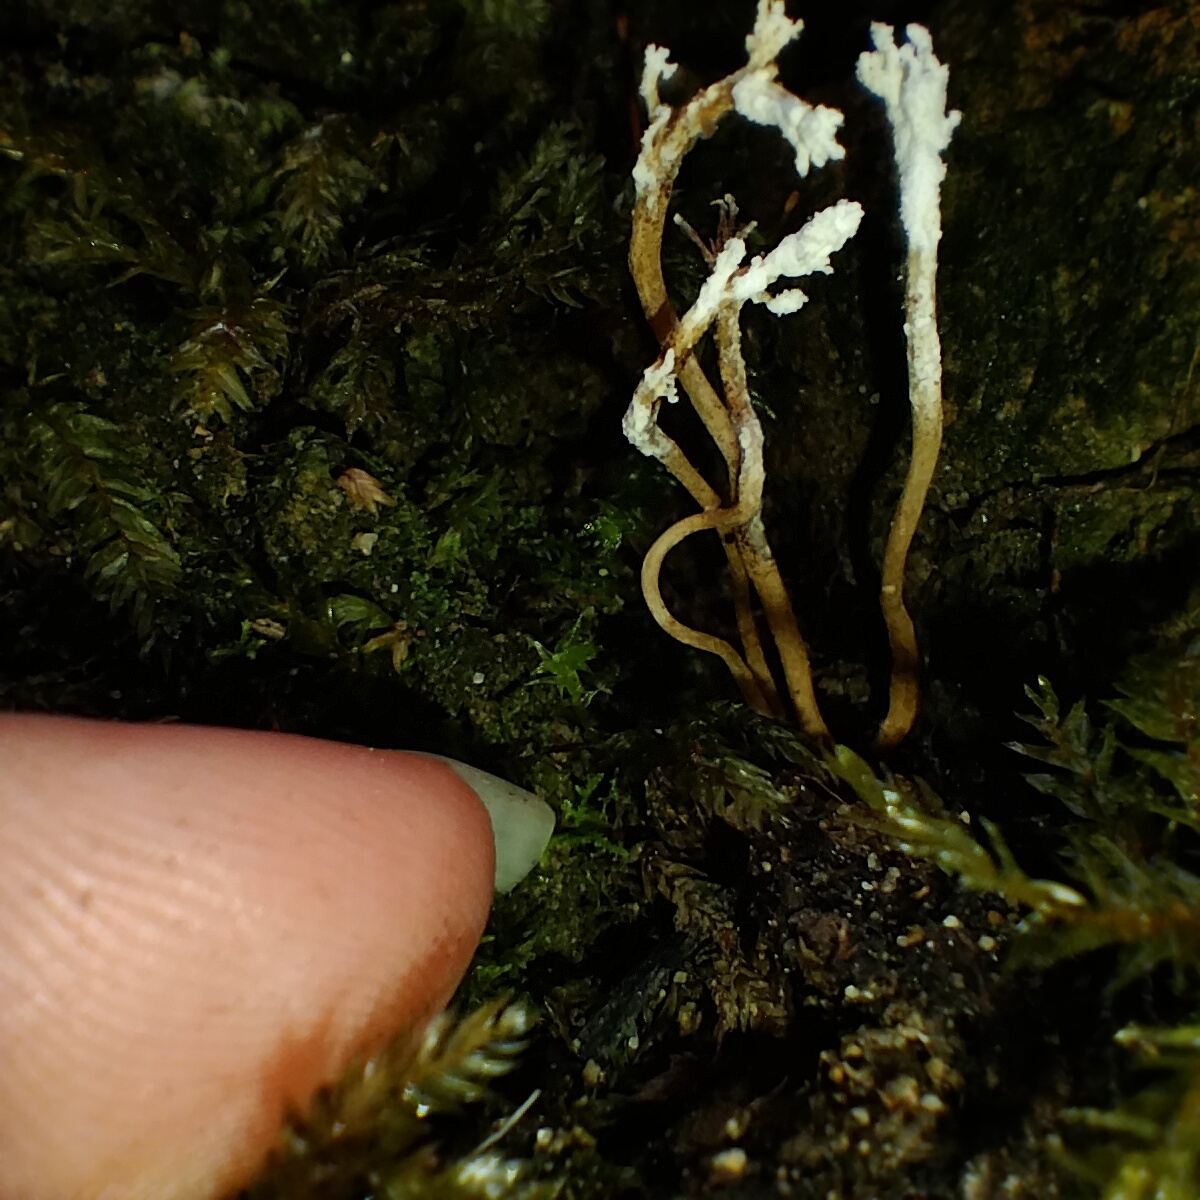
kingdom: Fungi
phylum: Ascomycota
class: Sordariomycetes
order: Hypocreales
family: Cordycipitaceae
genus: Cordyceps
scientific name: Cordyceps tenuipes
